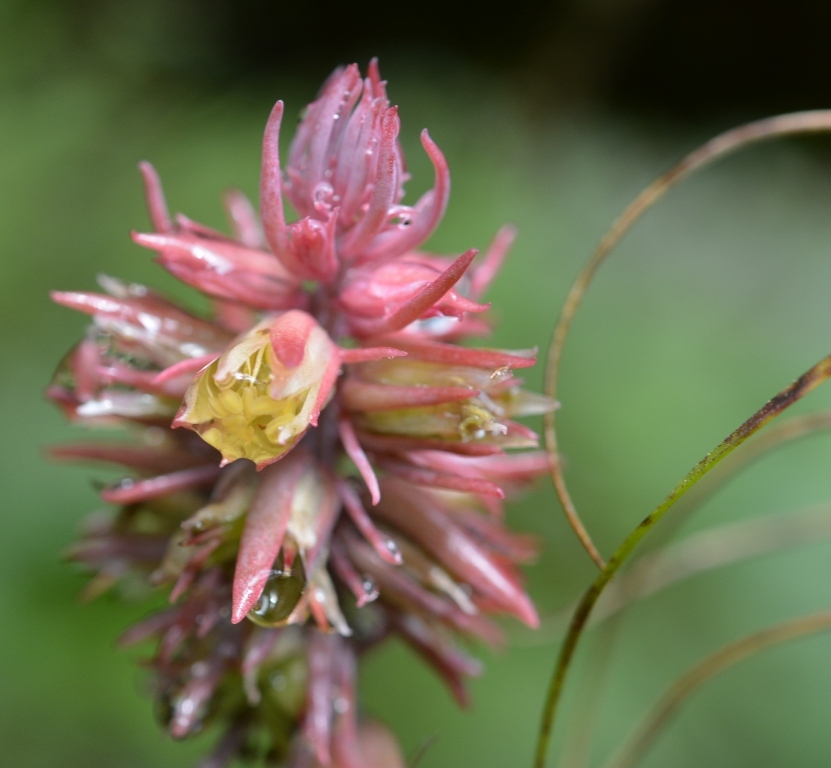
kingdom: Plantae
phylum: Tracheophyta
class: Magnoliopsida
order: Saxifragales
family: Crassulaceae
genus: Echeveria
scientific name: Echeveria rosea
